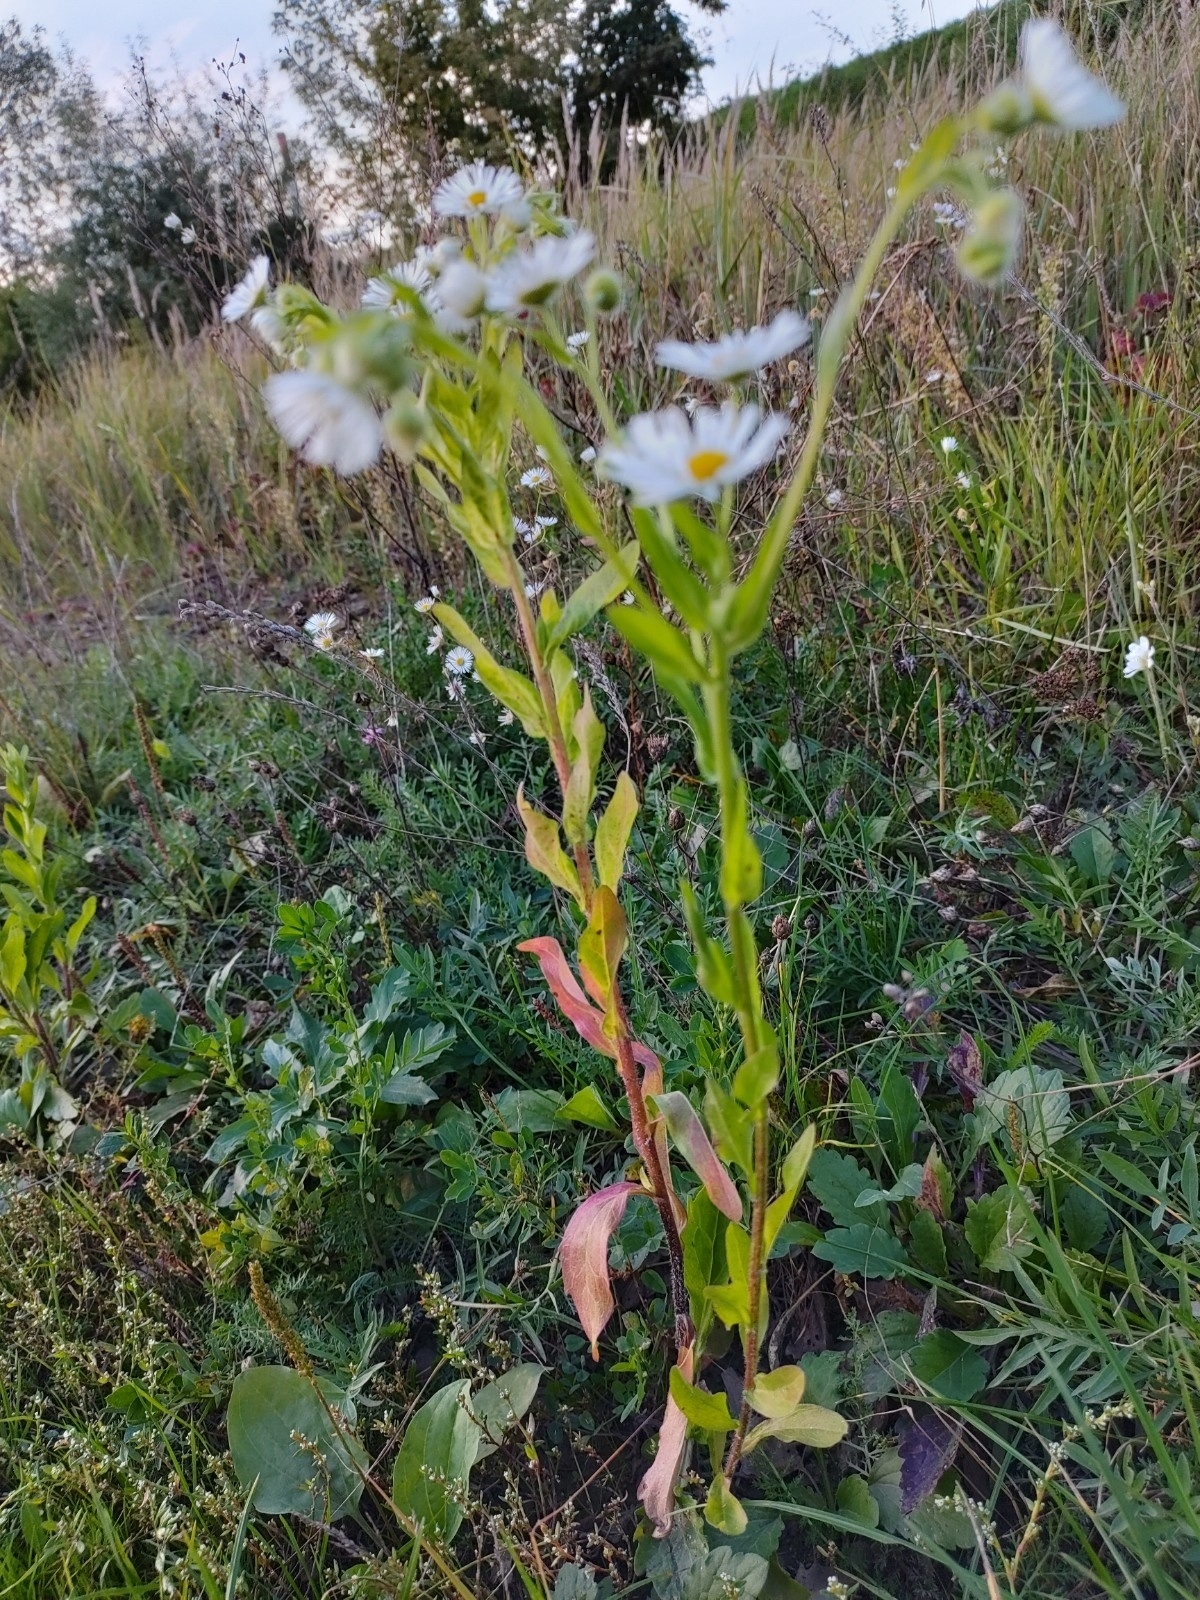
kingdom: Plantae
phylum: Tracheophyta
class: Magnoliopsida
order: Asterales
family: Asteraceae
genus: Erigeron
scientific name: Erigeron annuus
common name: Tall fleabane
